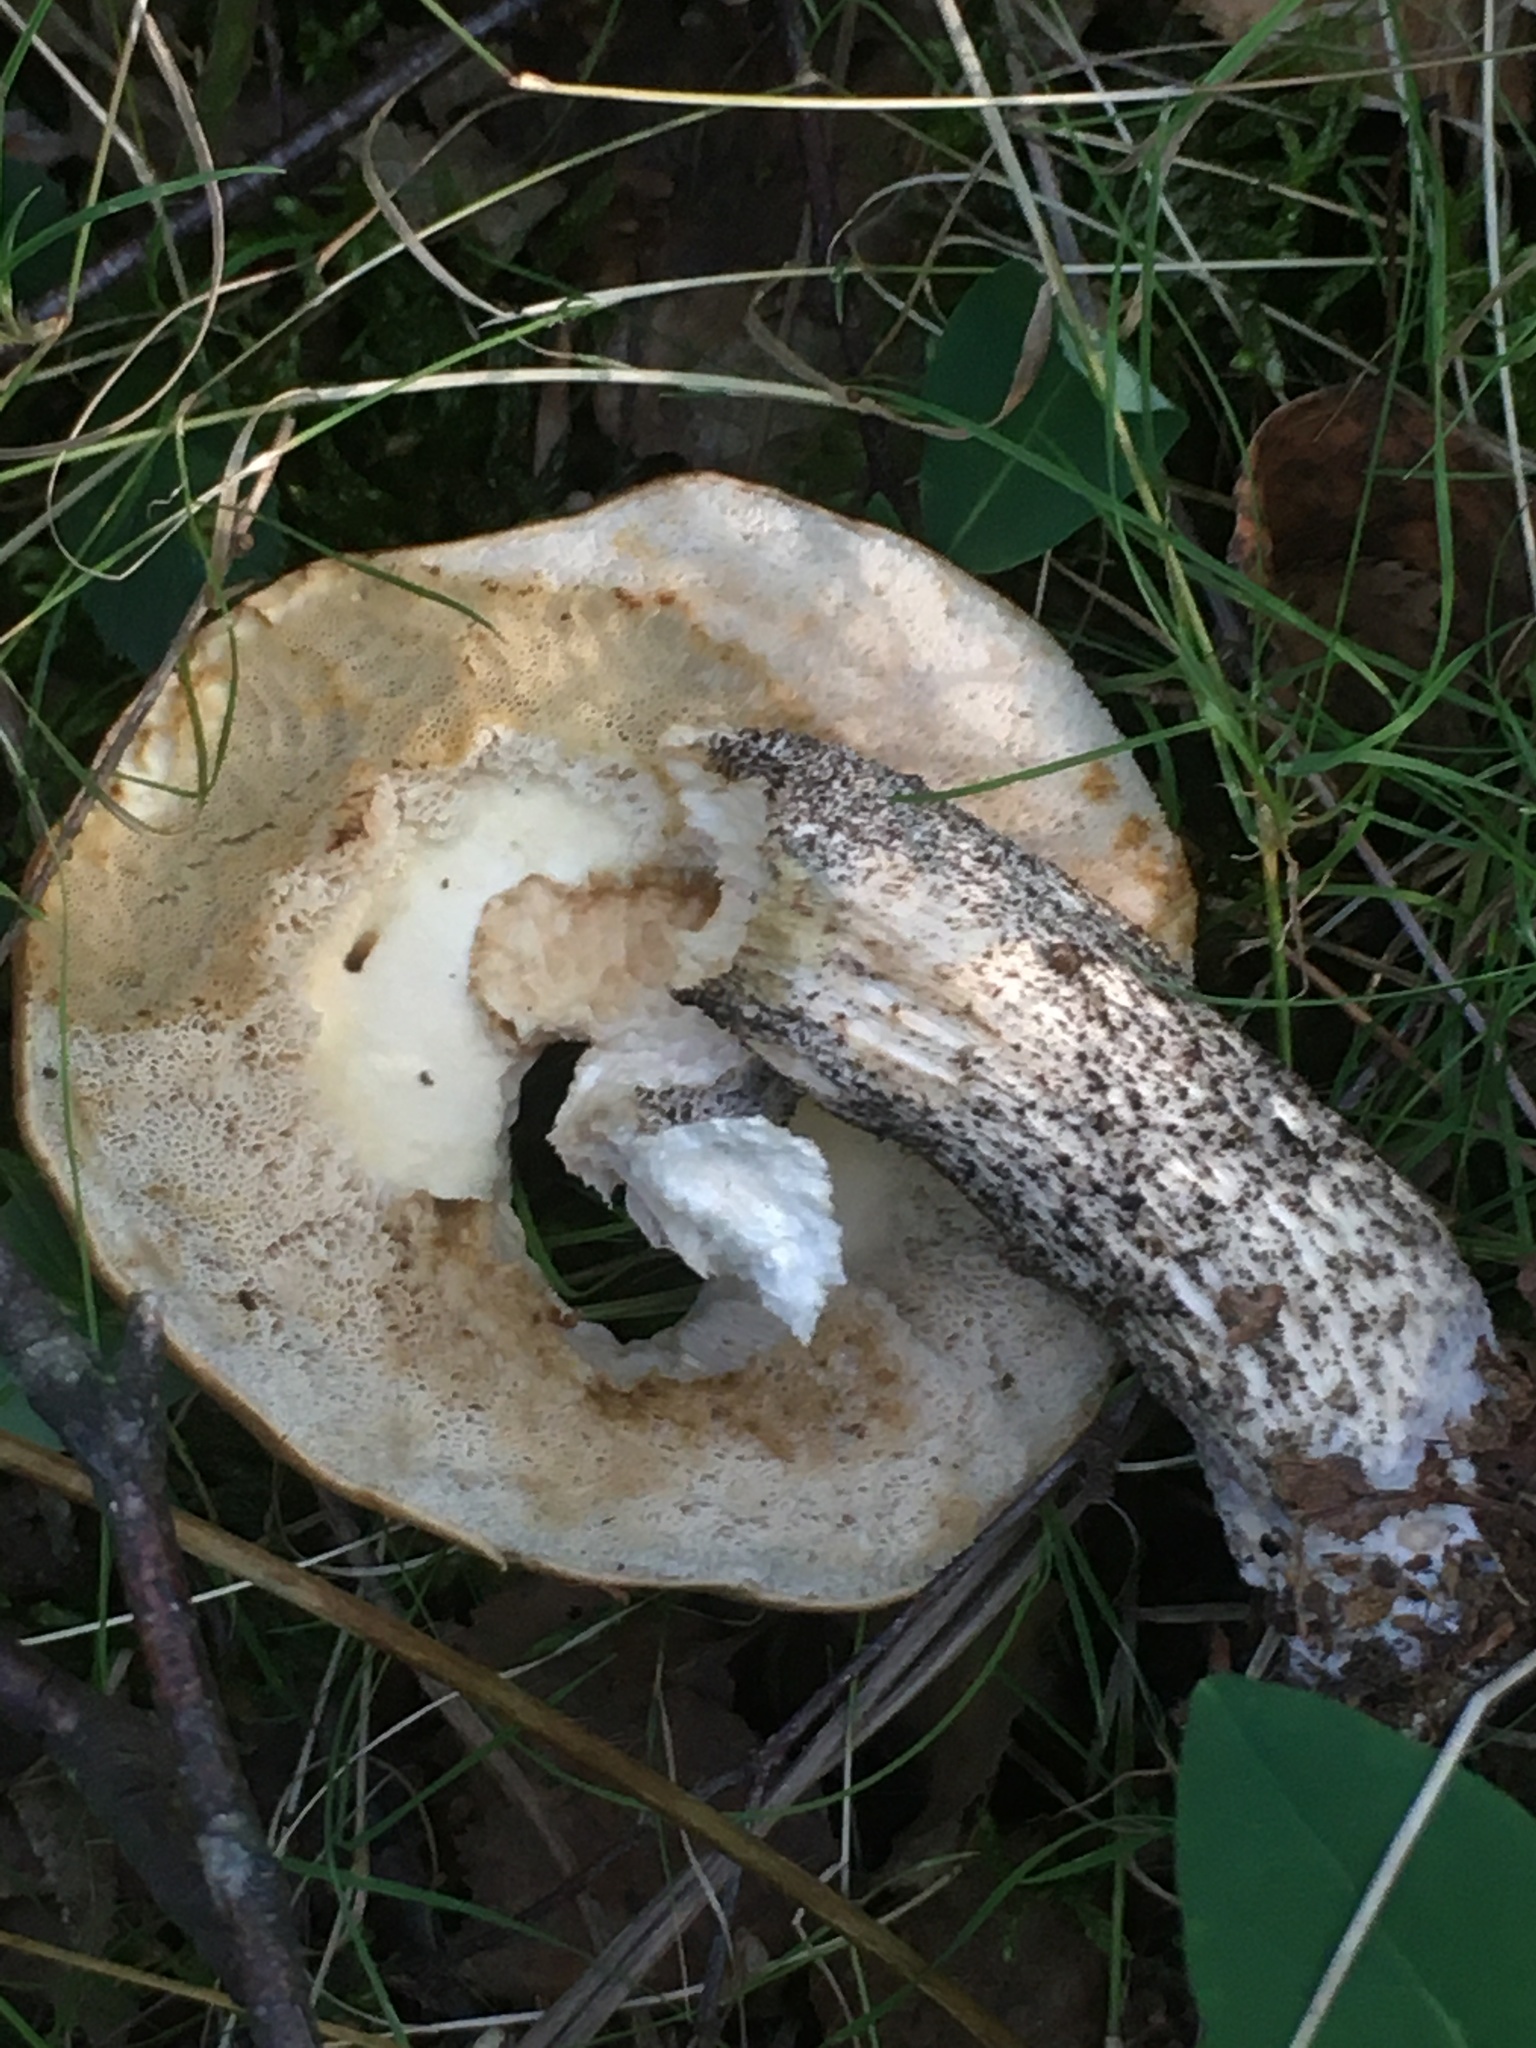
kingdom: Fungi
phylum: Basidiomycota
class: Agaricomycetes
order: Boletales
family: Boletaceae
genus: Leccinum
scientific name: Leccinum versipelle
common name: Orange birch bolete
